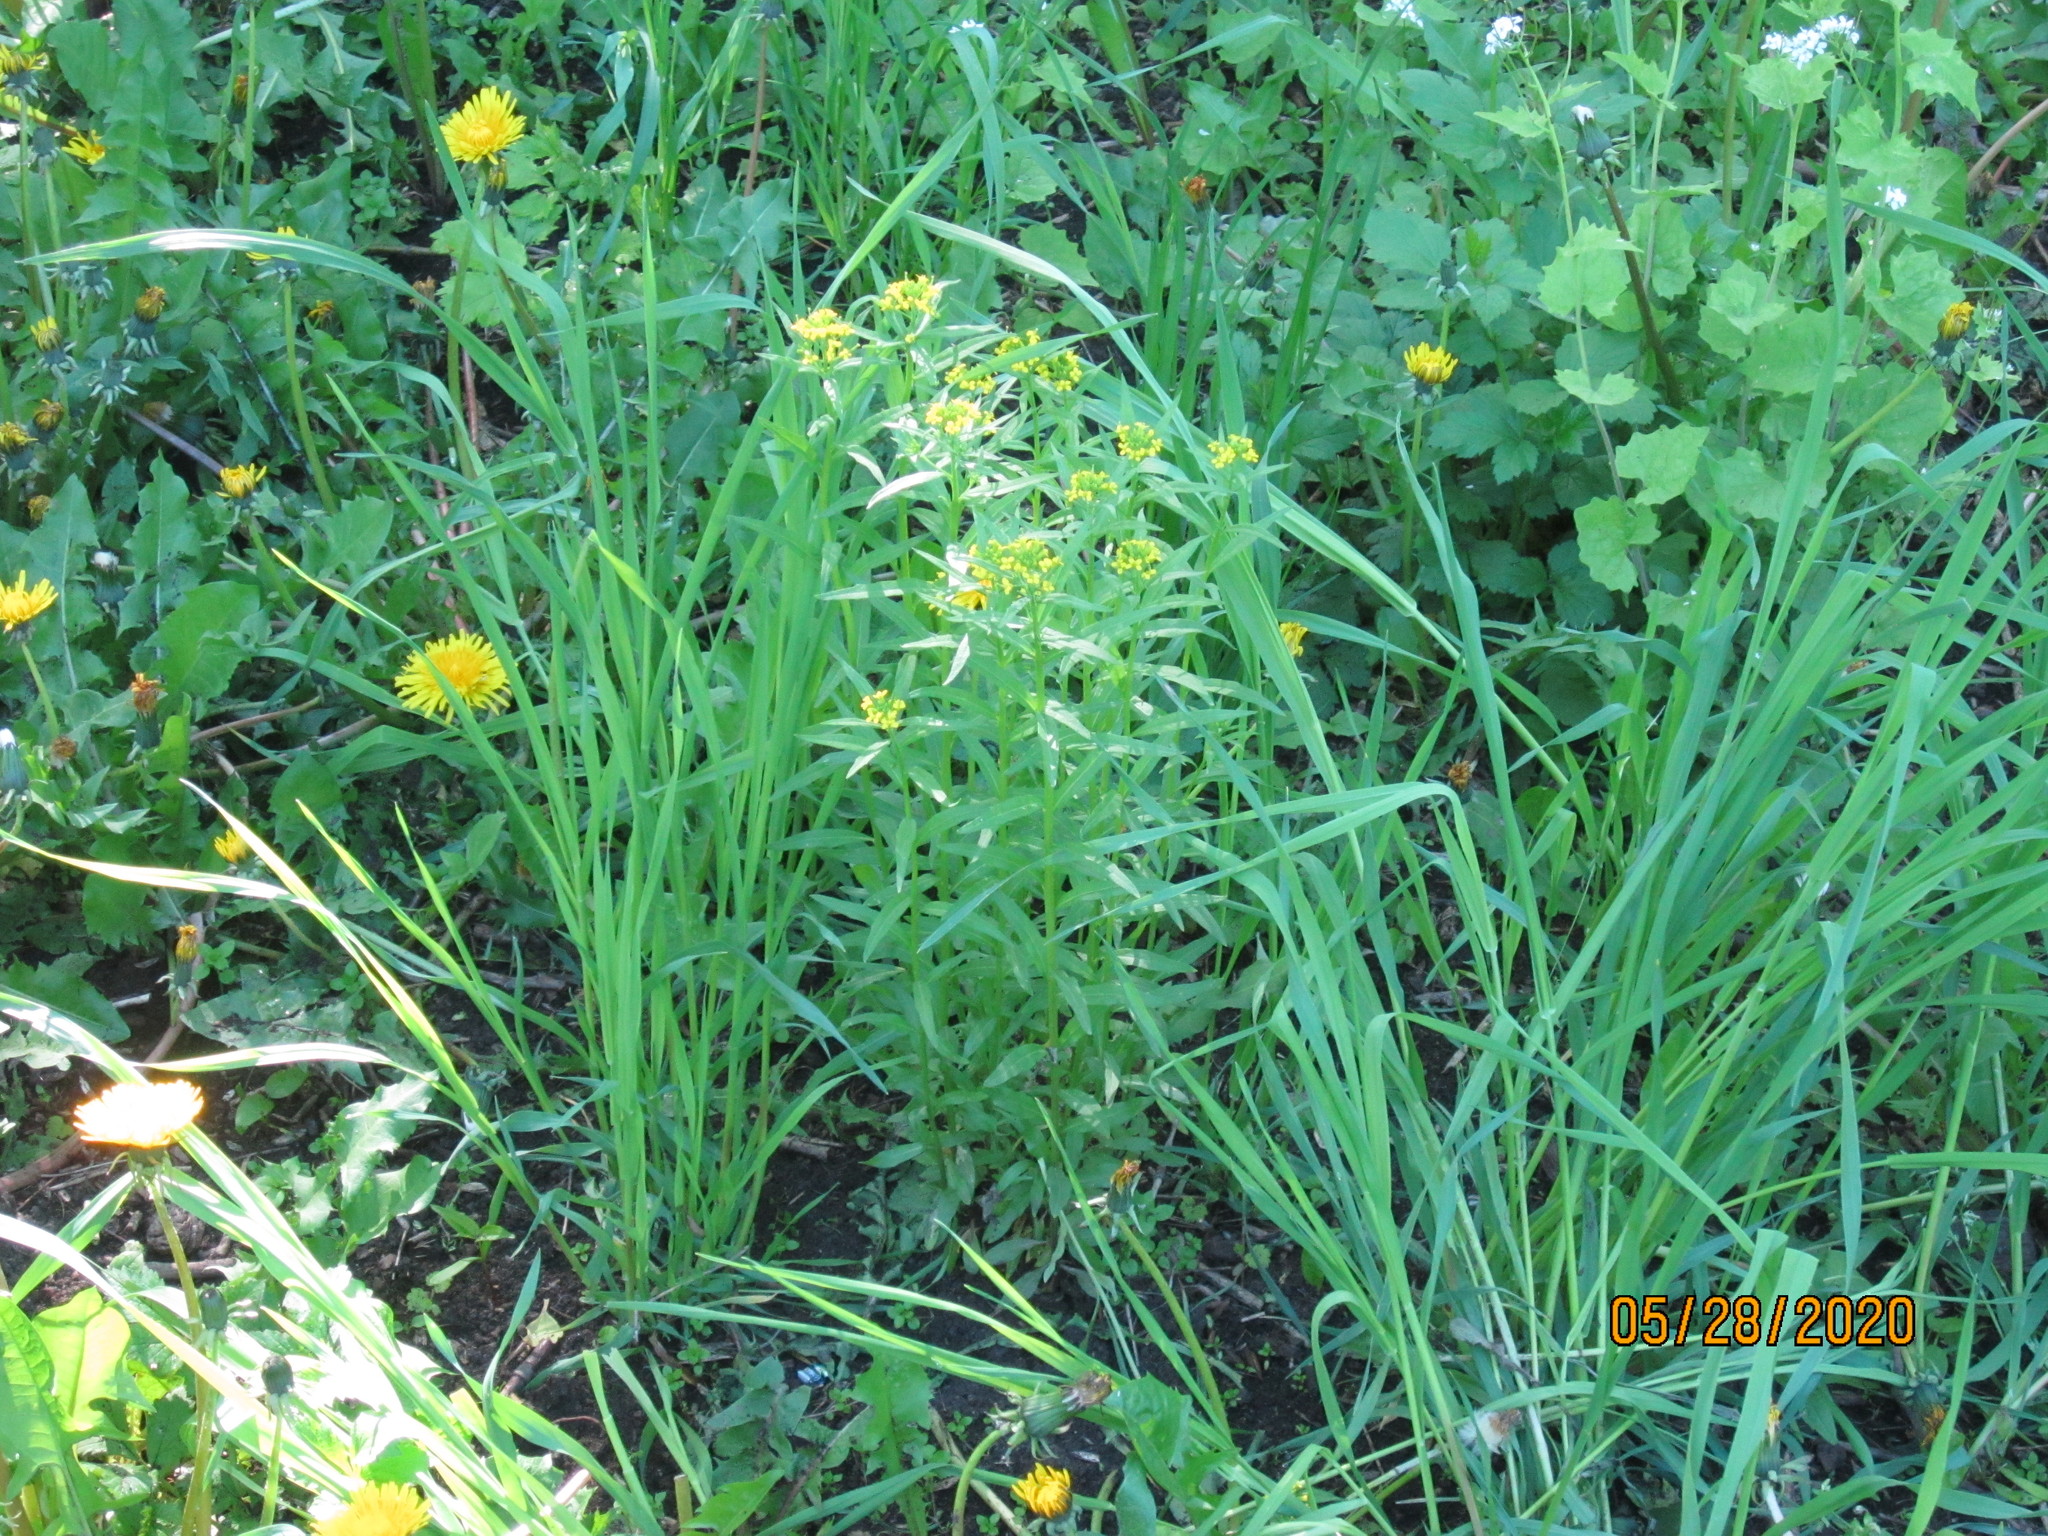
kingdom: Plantae
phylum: Tracheophyta
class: Magnoliopsida
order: Brassicales
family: Brassicaceae
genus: Erysimum
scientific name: Erysimum cheiranthoides
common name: Treacle mustard
